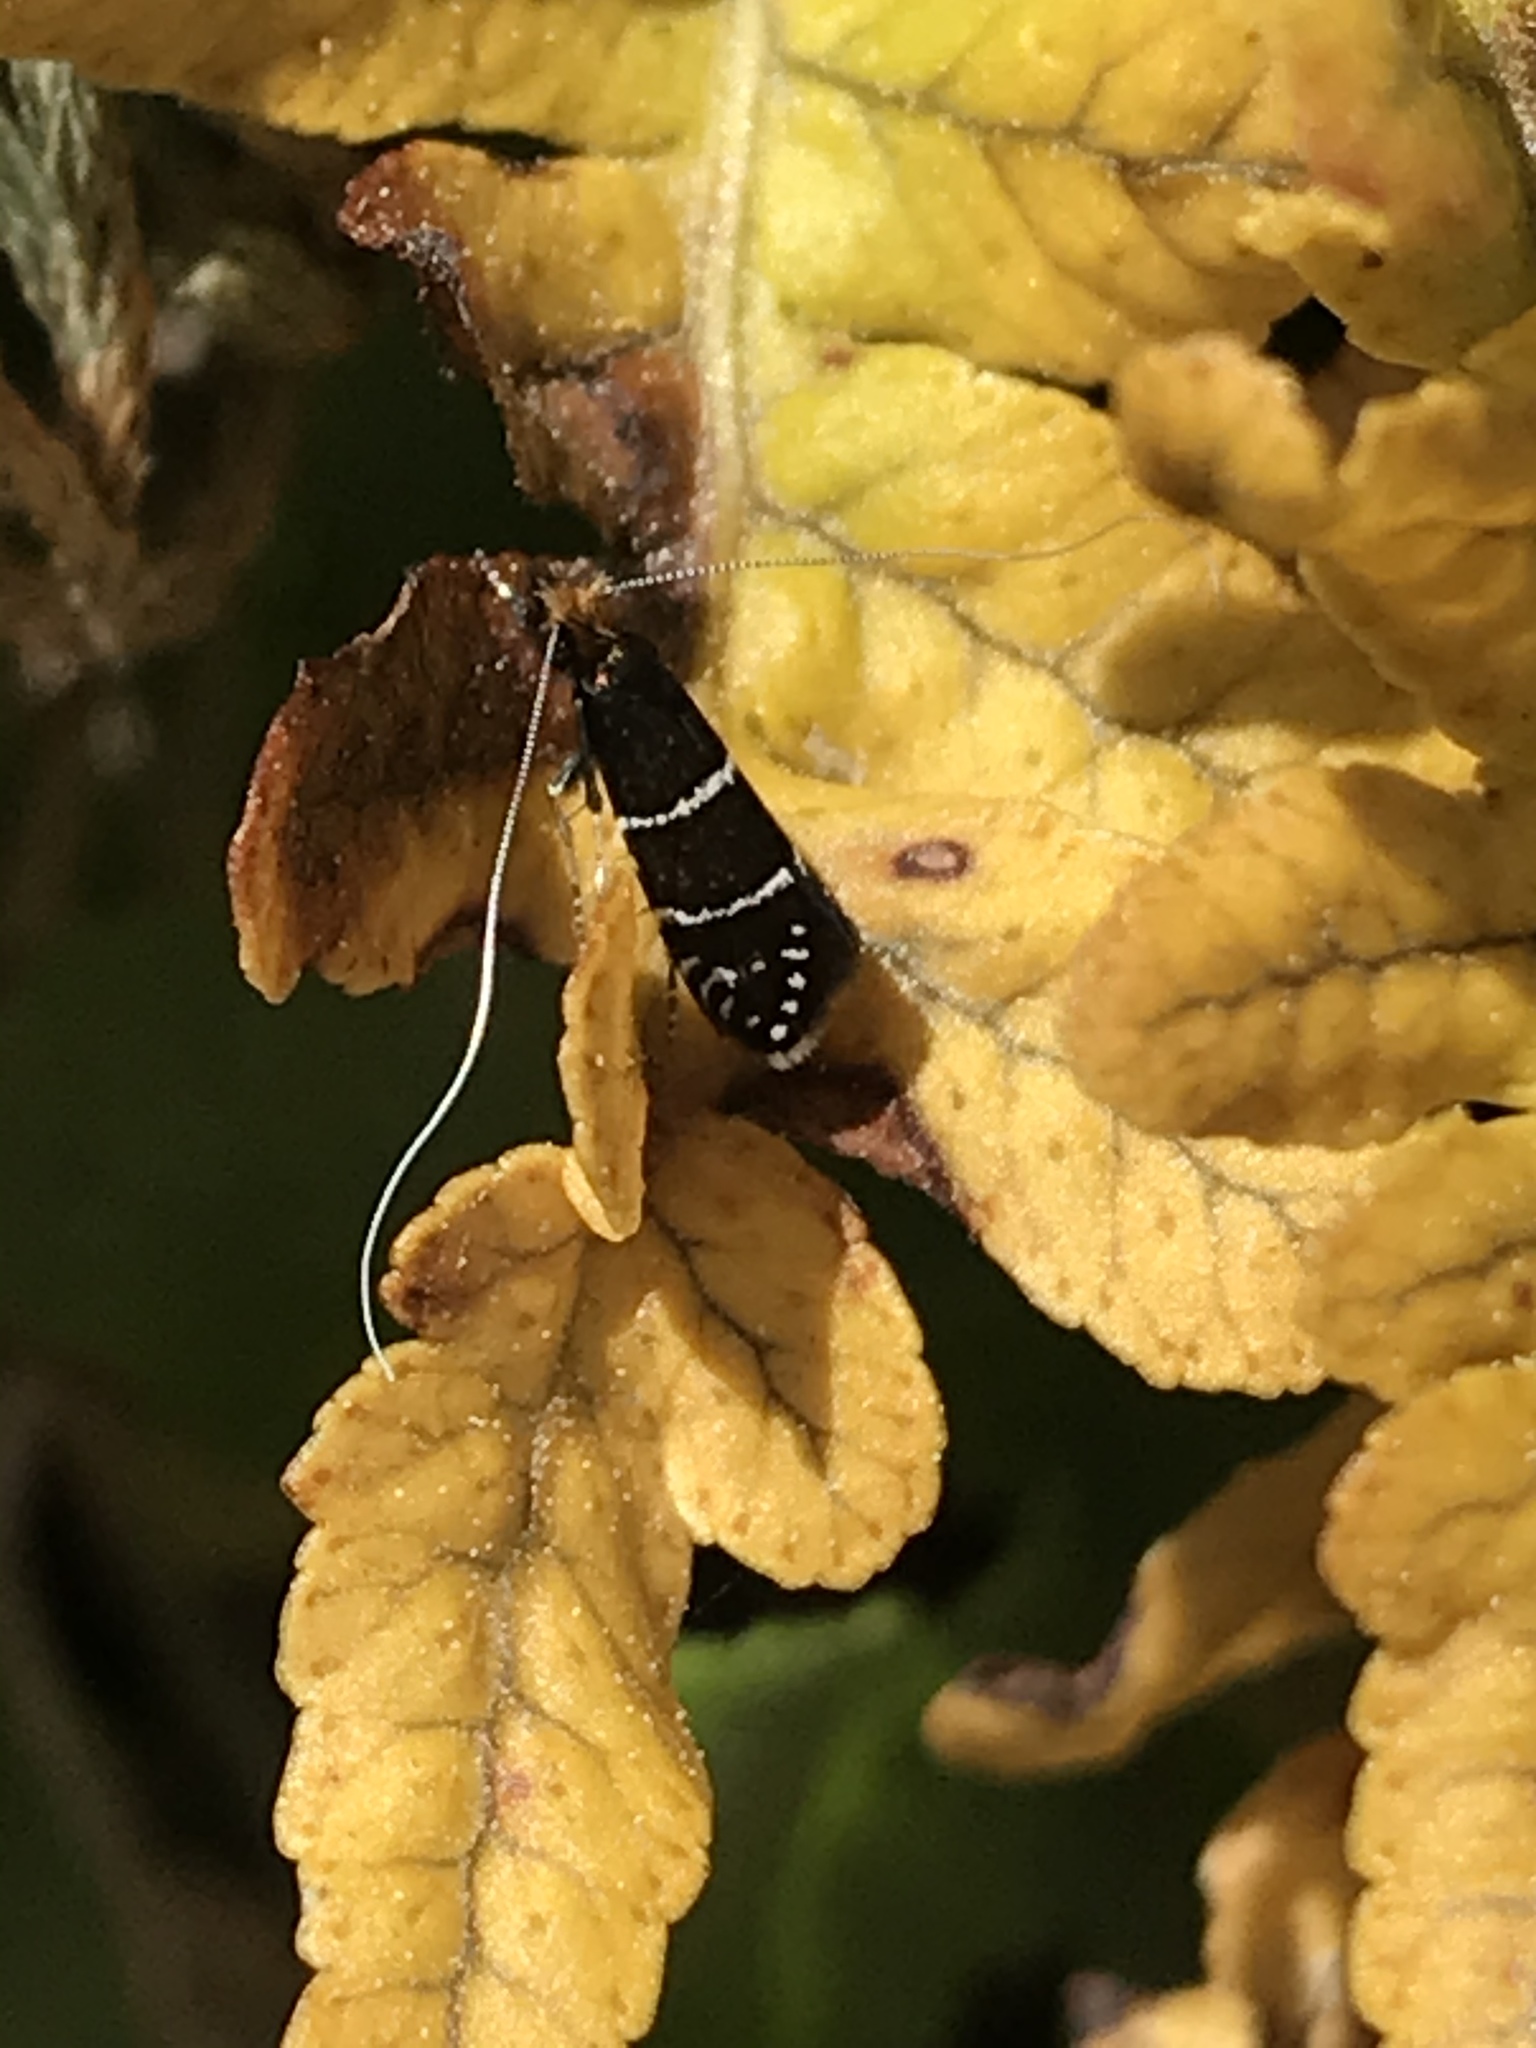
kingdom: Animalia
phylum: Arthropoda
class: Insecta
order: Lepidoptera
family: Adelidae
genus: Adela
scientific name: Adela septentrionella
